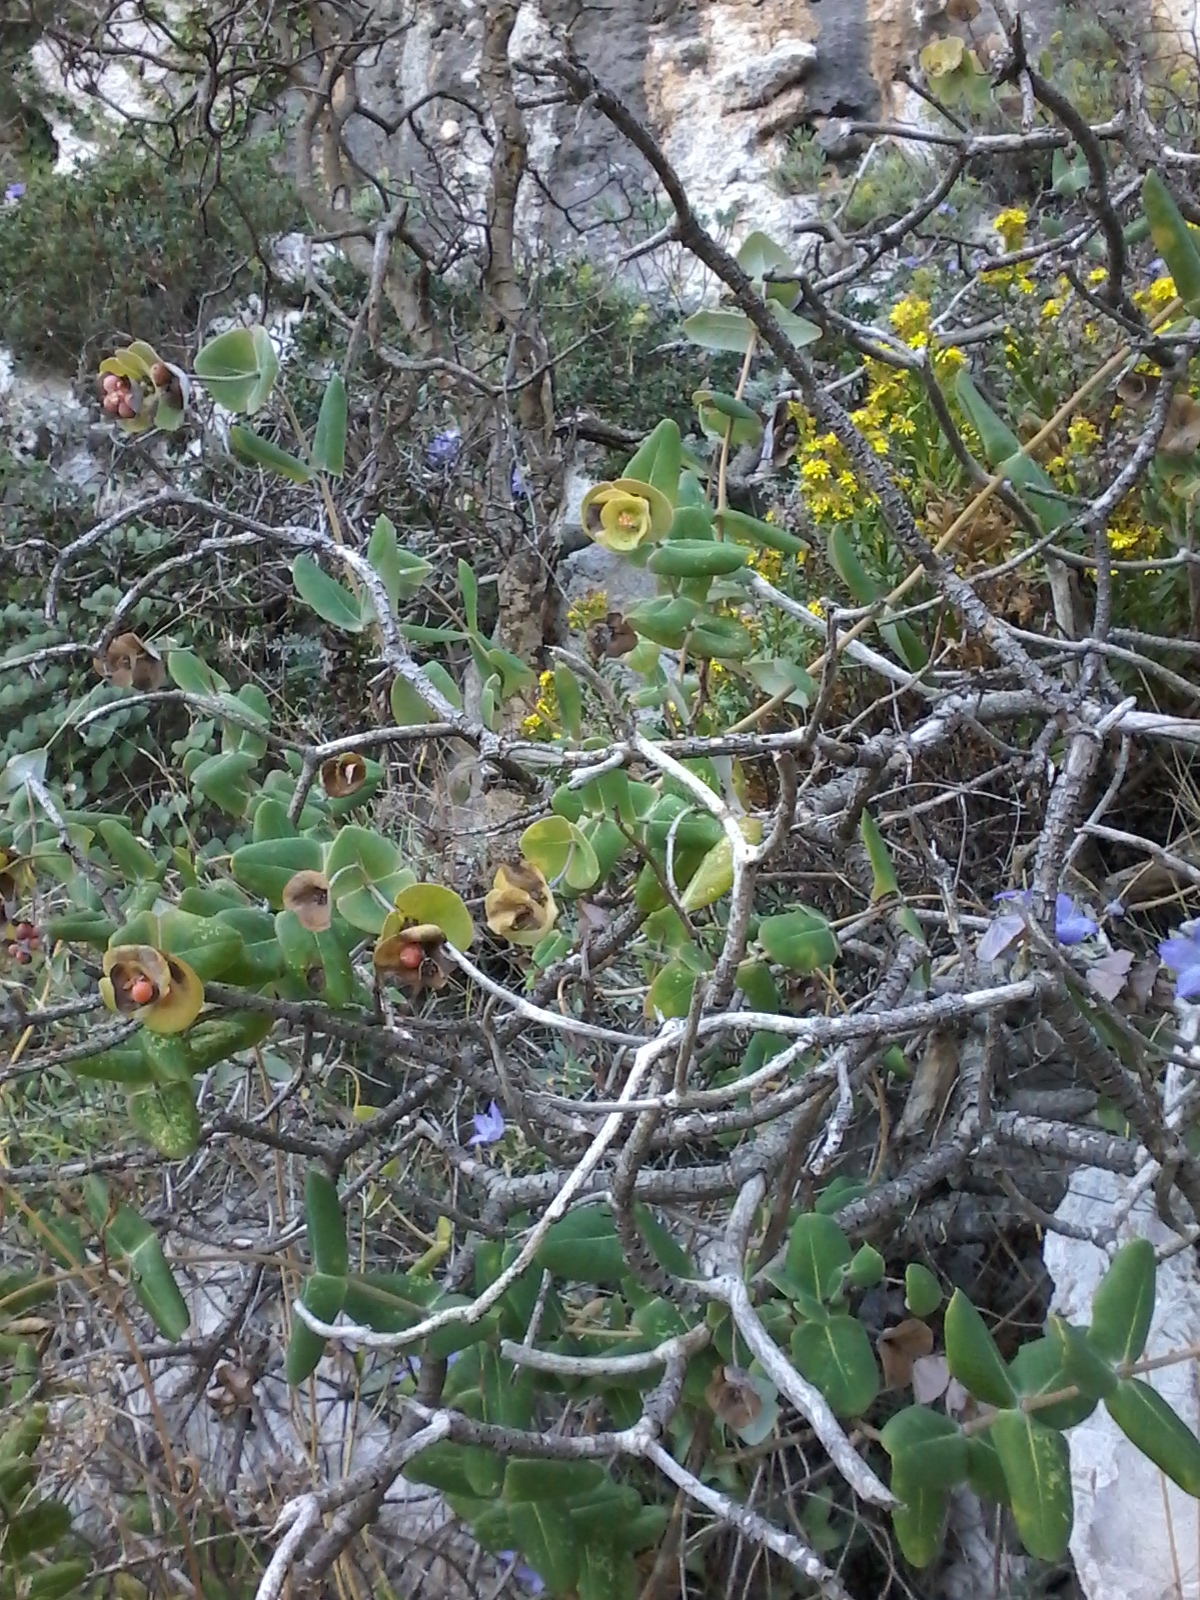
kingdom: Plantae
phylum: Tracheophyta
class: Magnoliopsida
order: Dipsacales
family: Caprifoliaceae
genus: Lonicera
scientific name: Lonicera implexa
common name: Minorca honeysuckle
